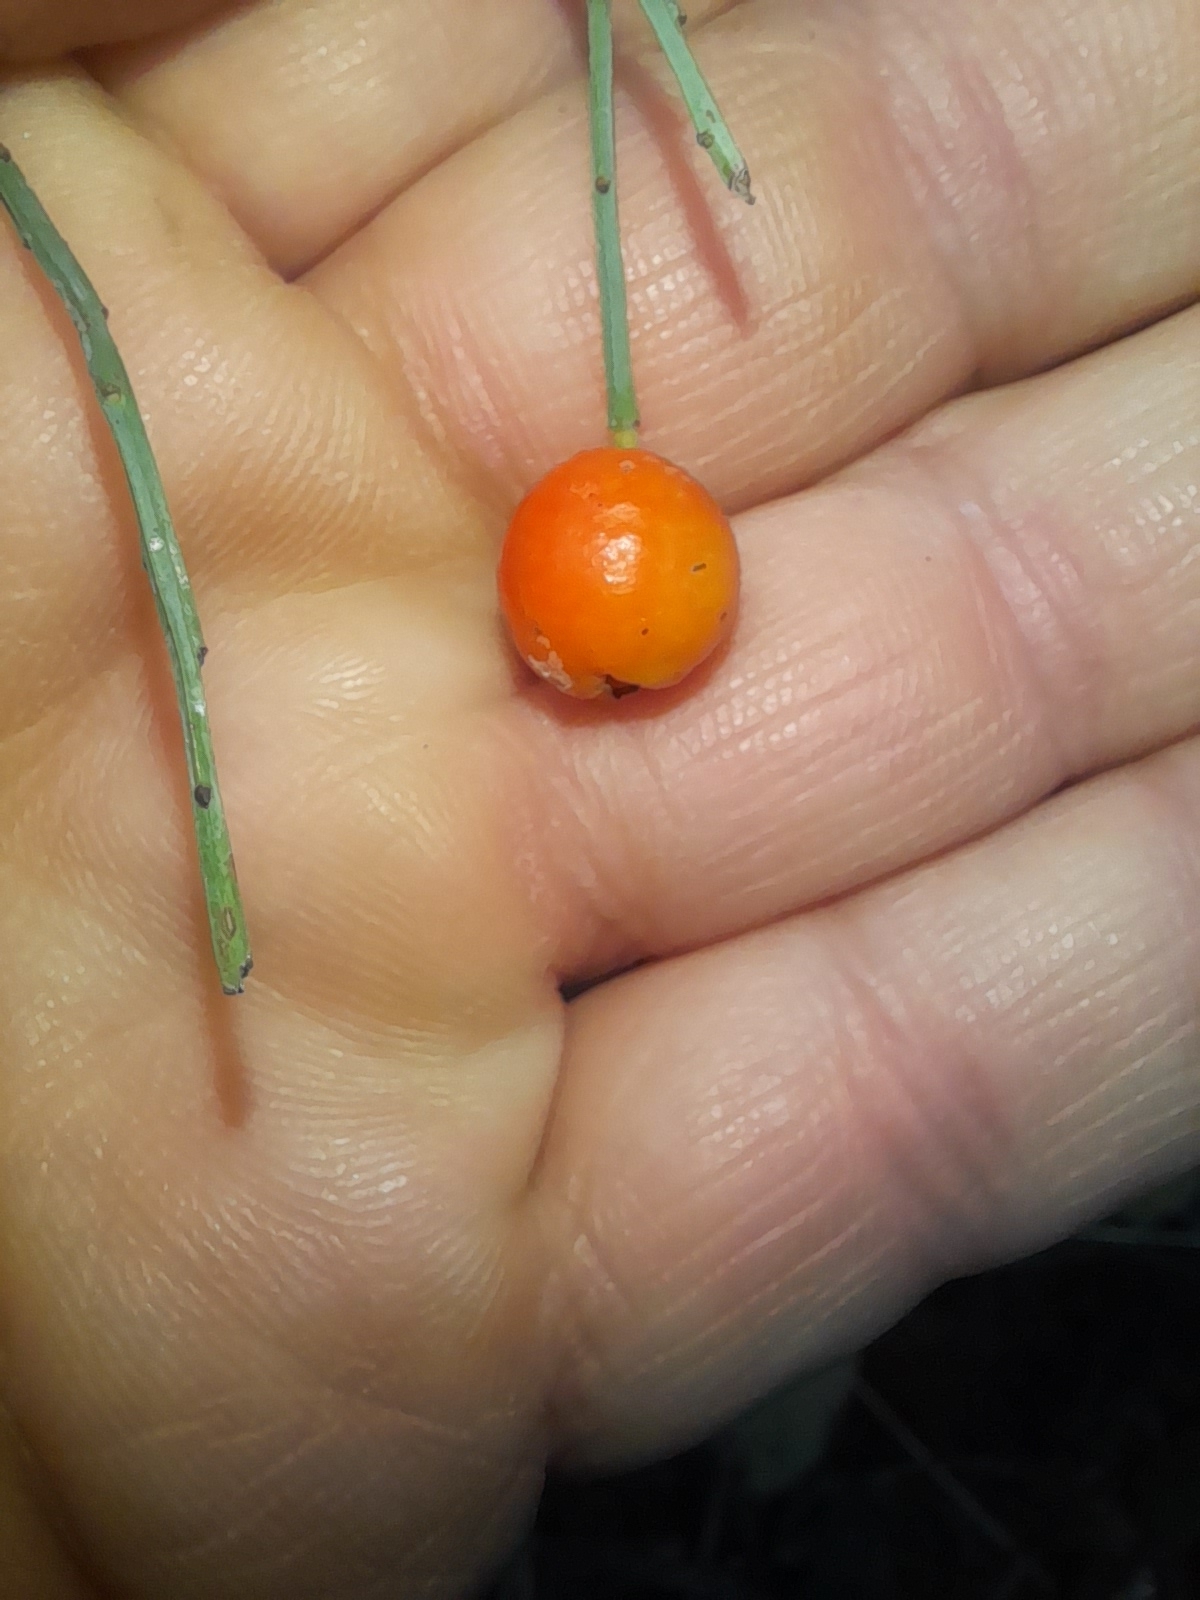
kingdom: Plantae
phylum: Tracheophyta
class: Magnoliopsida
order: Santalales
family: Santalaceae
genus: Osyris
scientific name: Osyris alba
